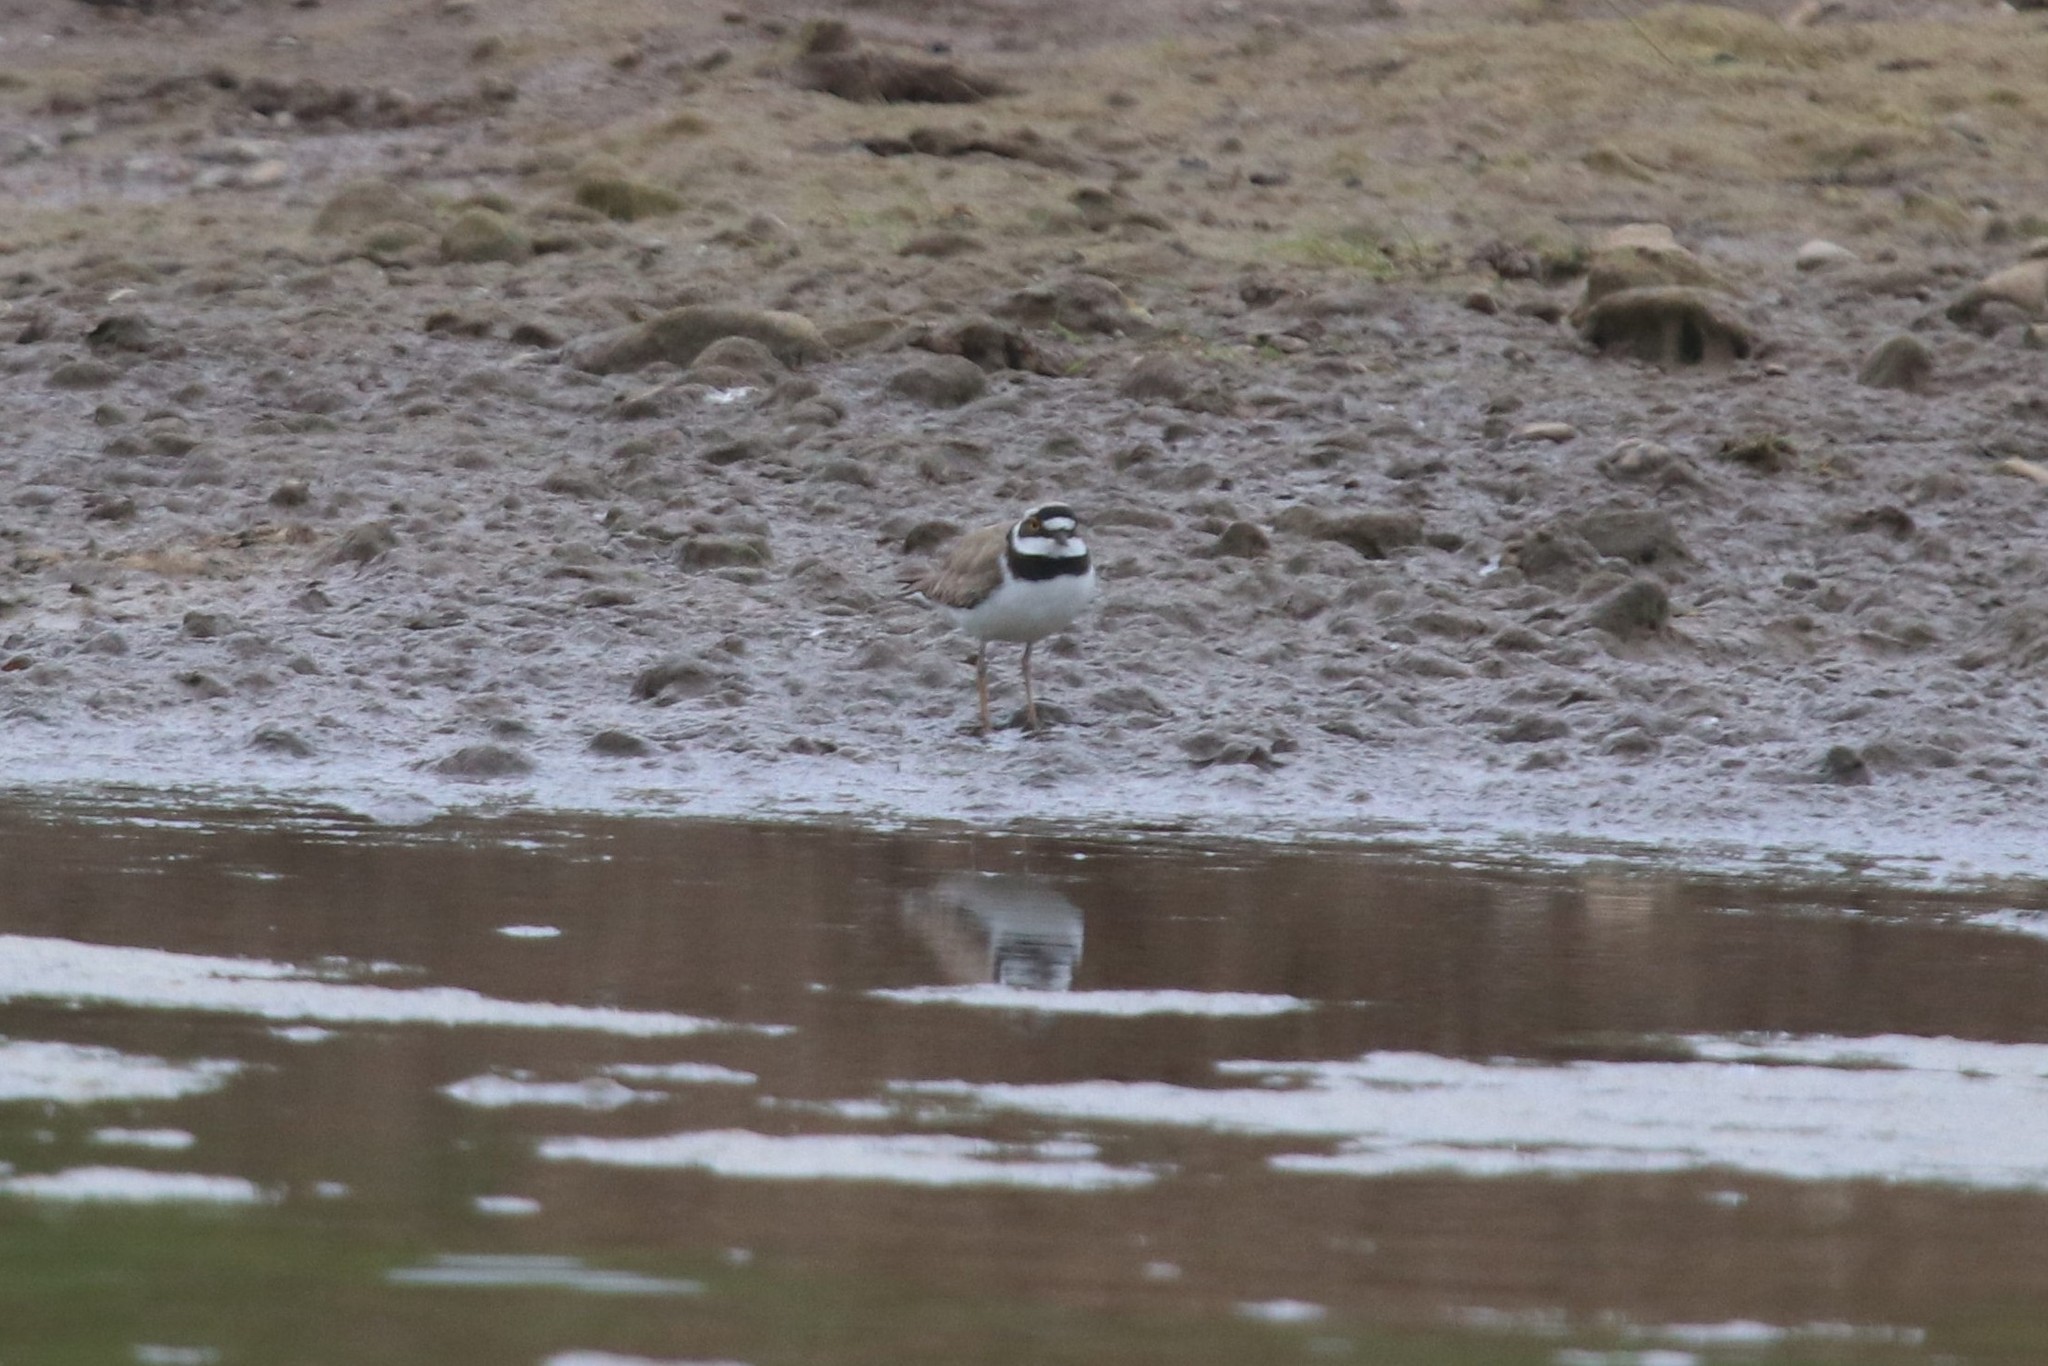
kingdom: Animalia
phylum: Chordata
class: Aves
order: Charadriiformes
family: Charadriidae
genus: Charadrius
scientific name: Charadrius dubius
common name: Little ringed plover
